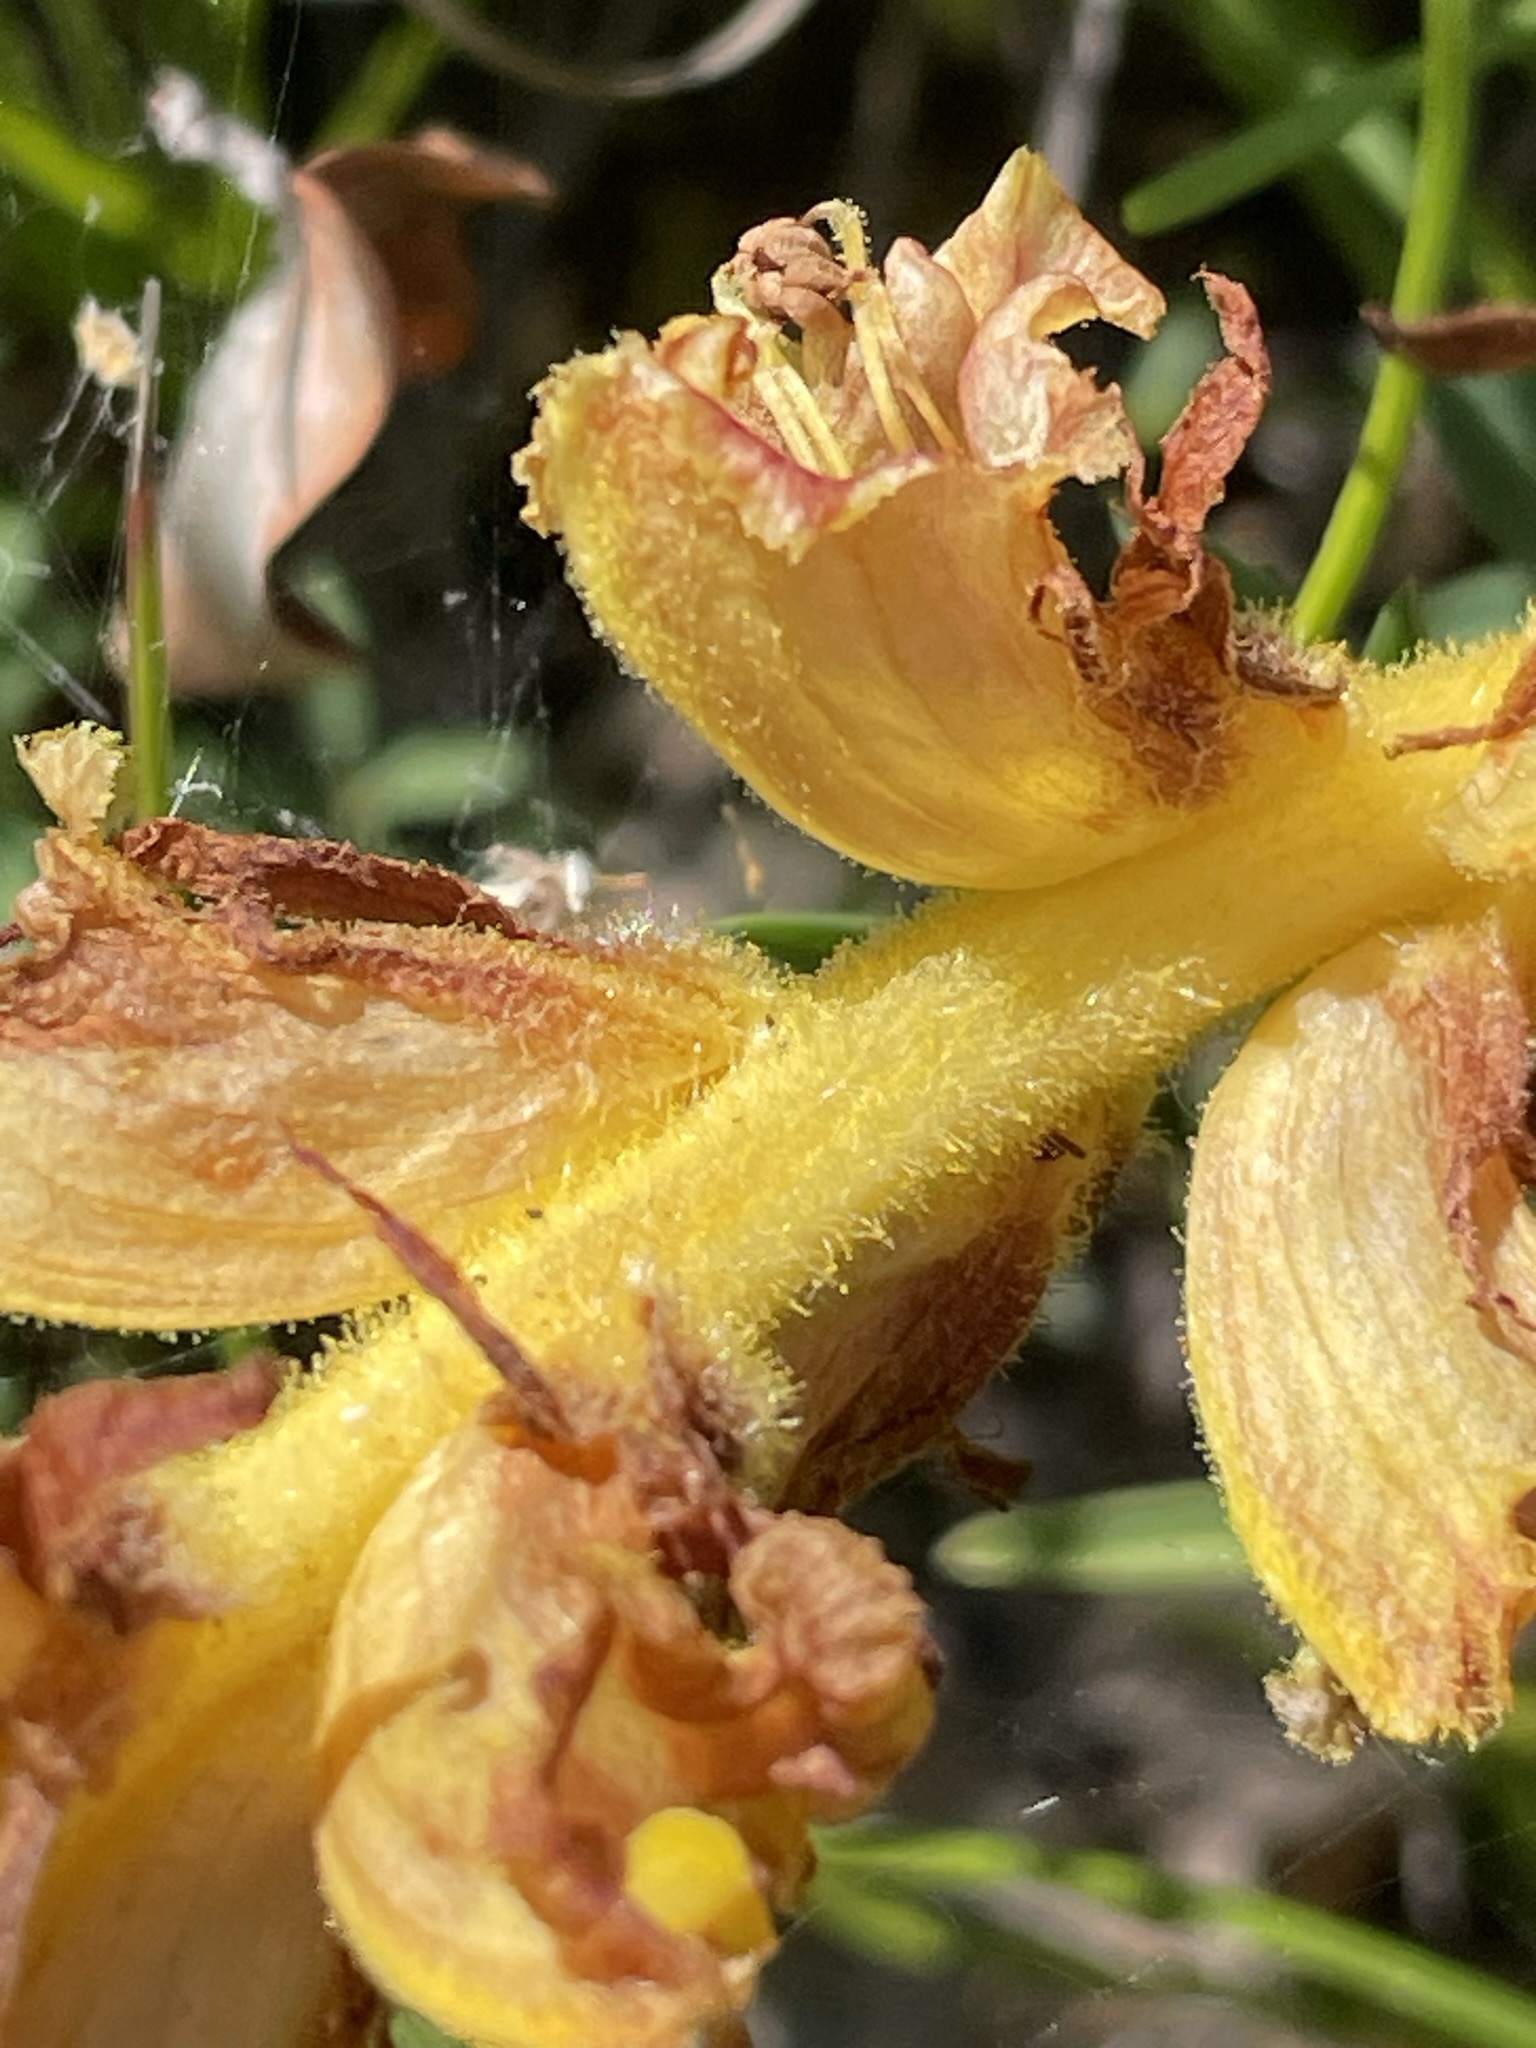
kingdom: Plantae
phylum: Tracheophyta
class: Magnoliopsida
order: Lamiales
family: Orobanchaceae
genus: Orobanche
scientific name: Orobanche gracilis
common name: Slender broomrape
